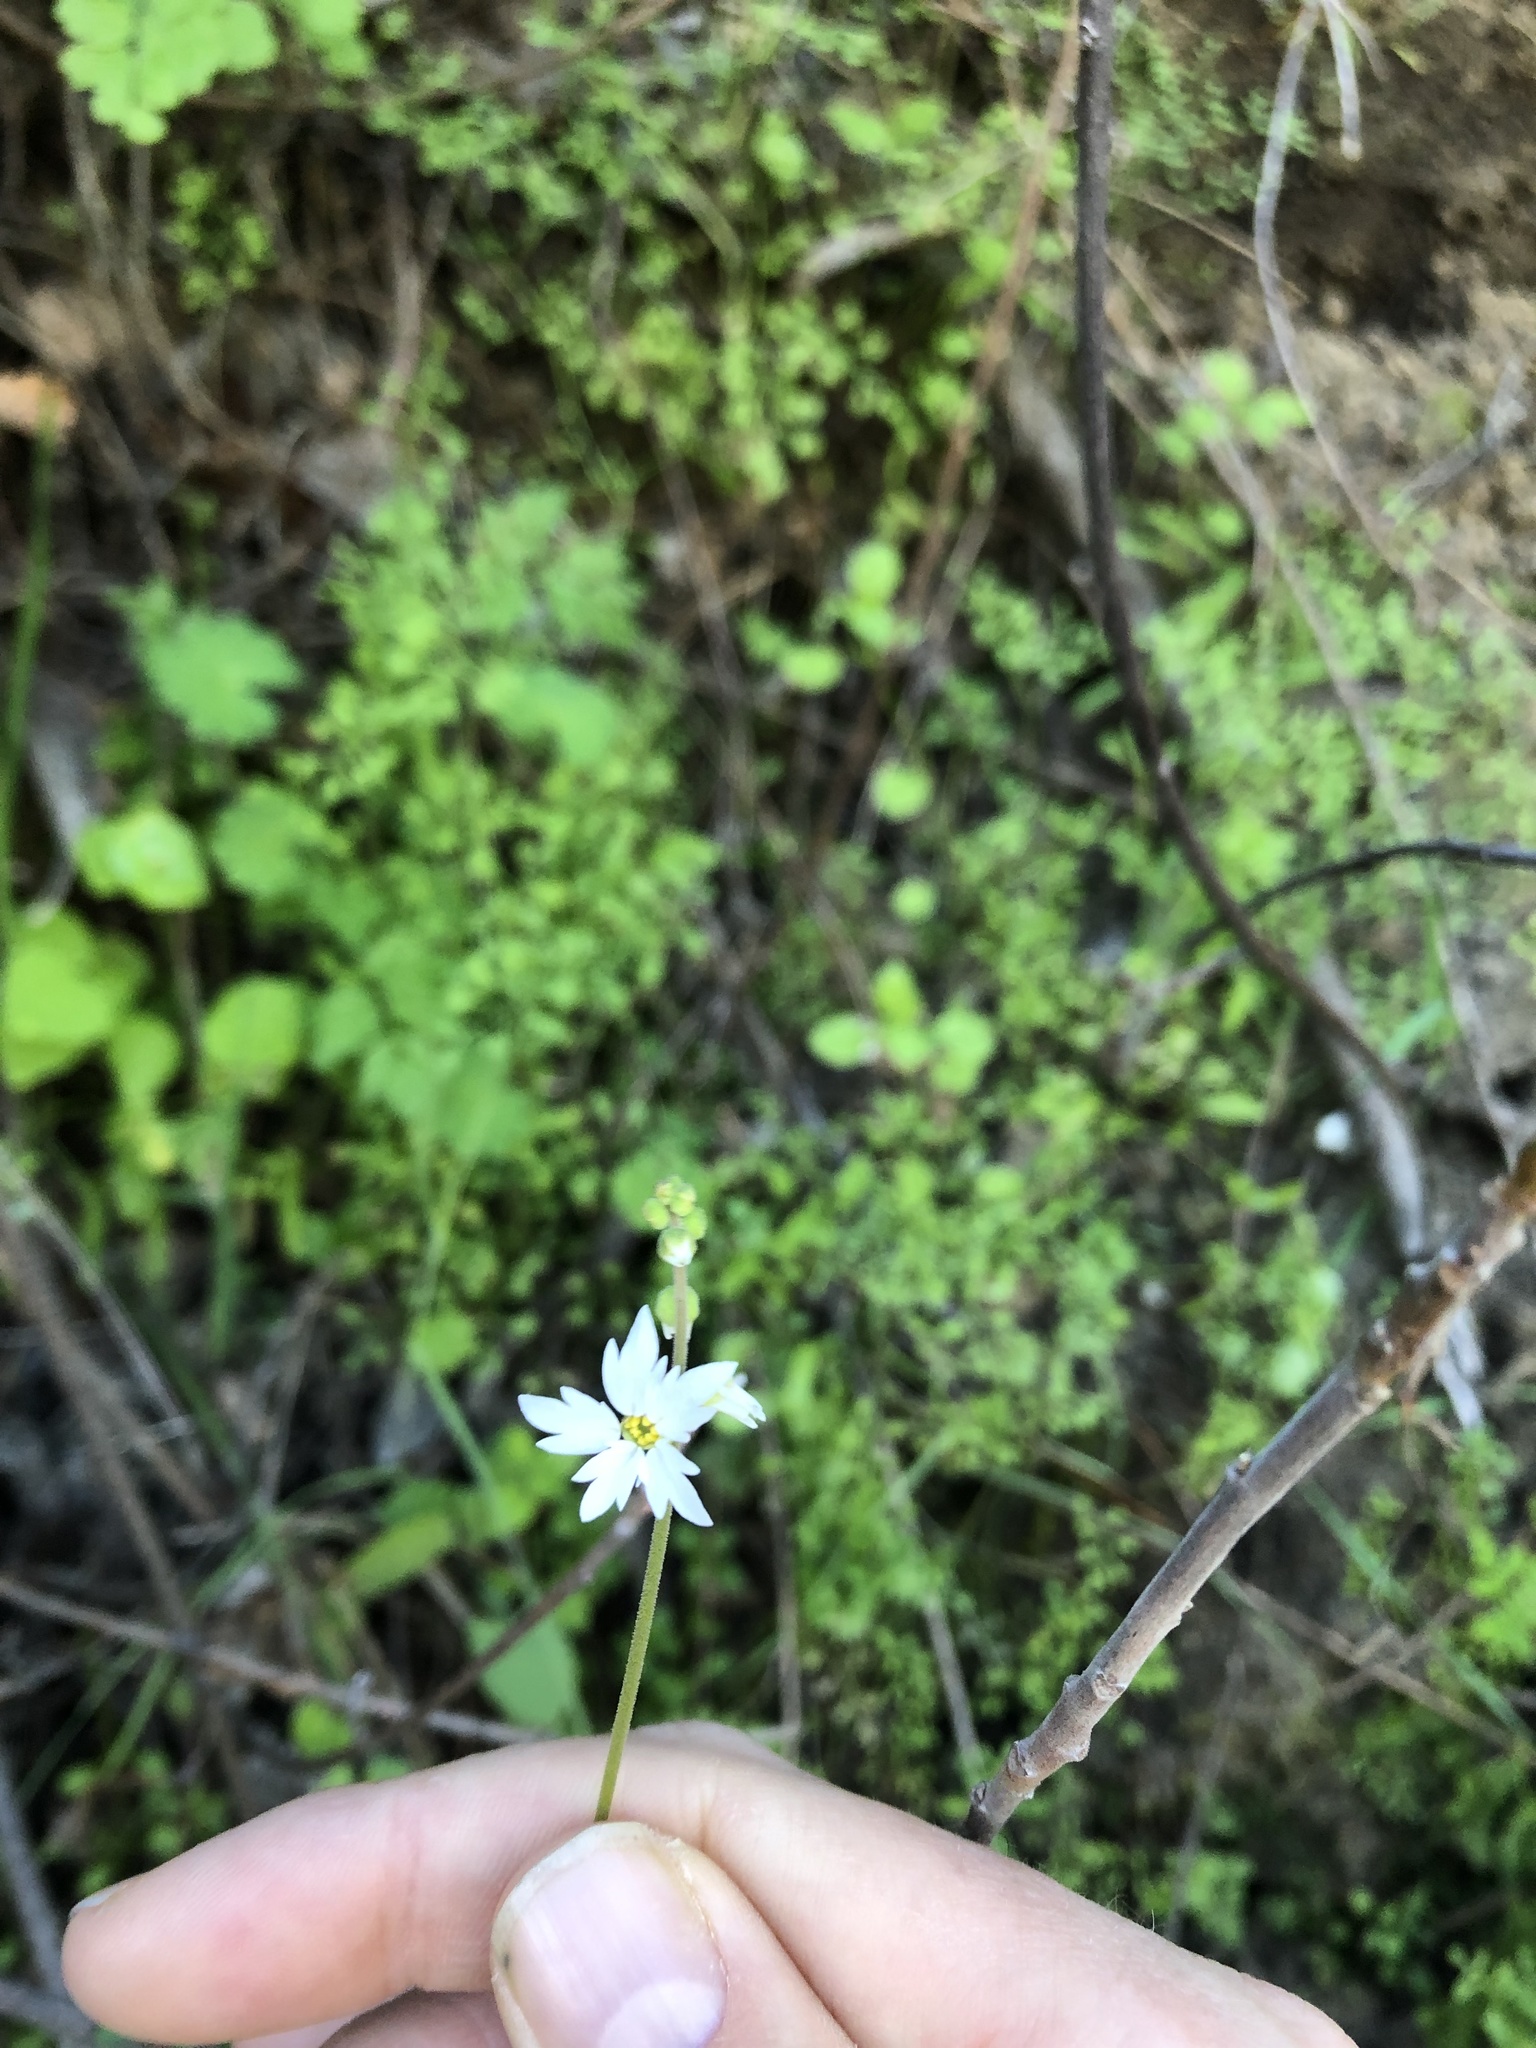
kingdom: Plantae
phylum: Tracheophyta
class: Magnoliopsida
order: Saxifragales
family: Saxifragaceae
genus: Lithophragma
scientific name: Lithophragma heterophyllum
